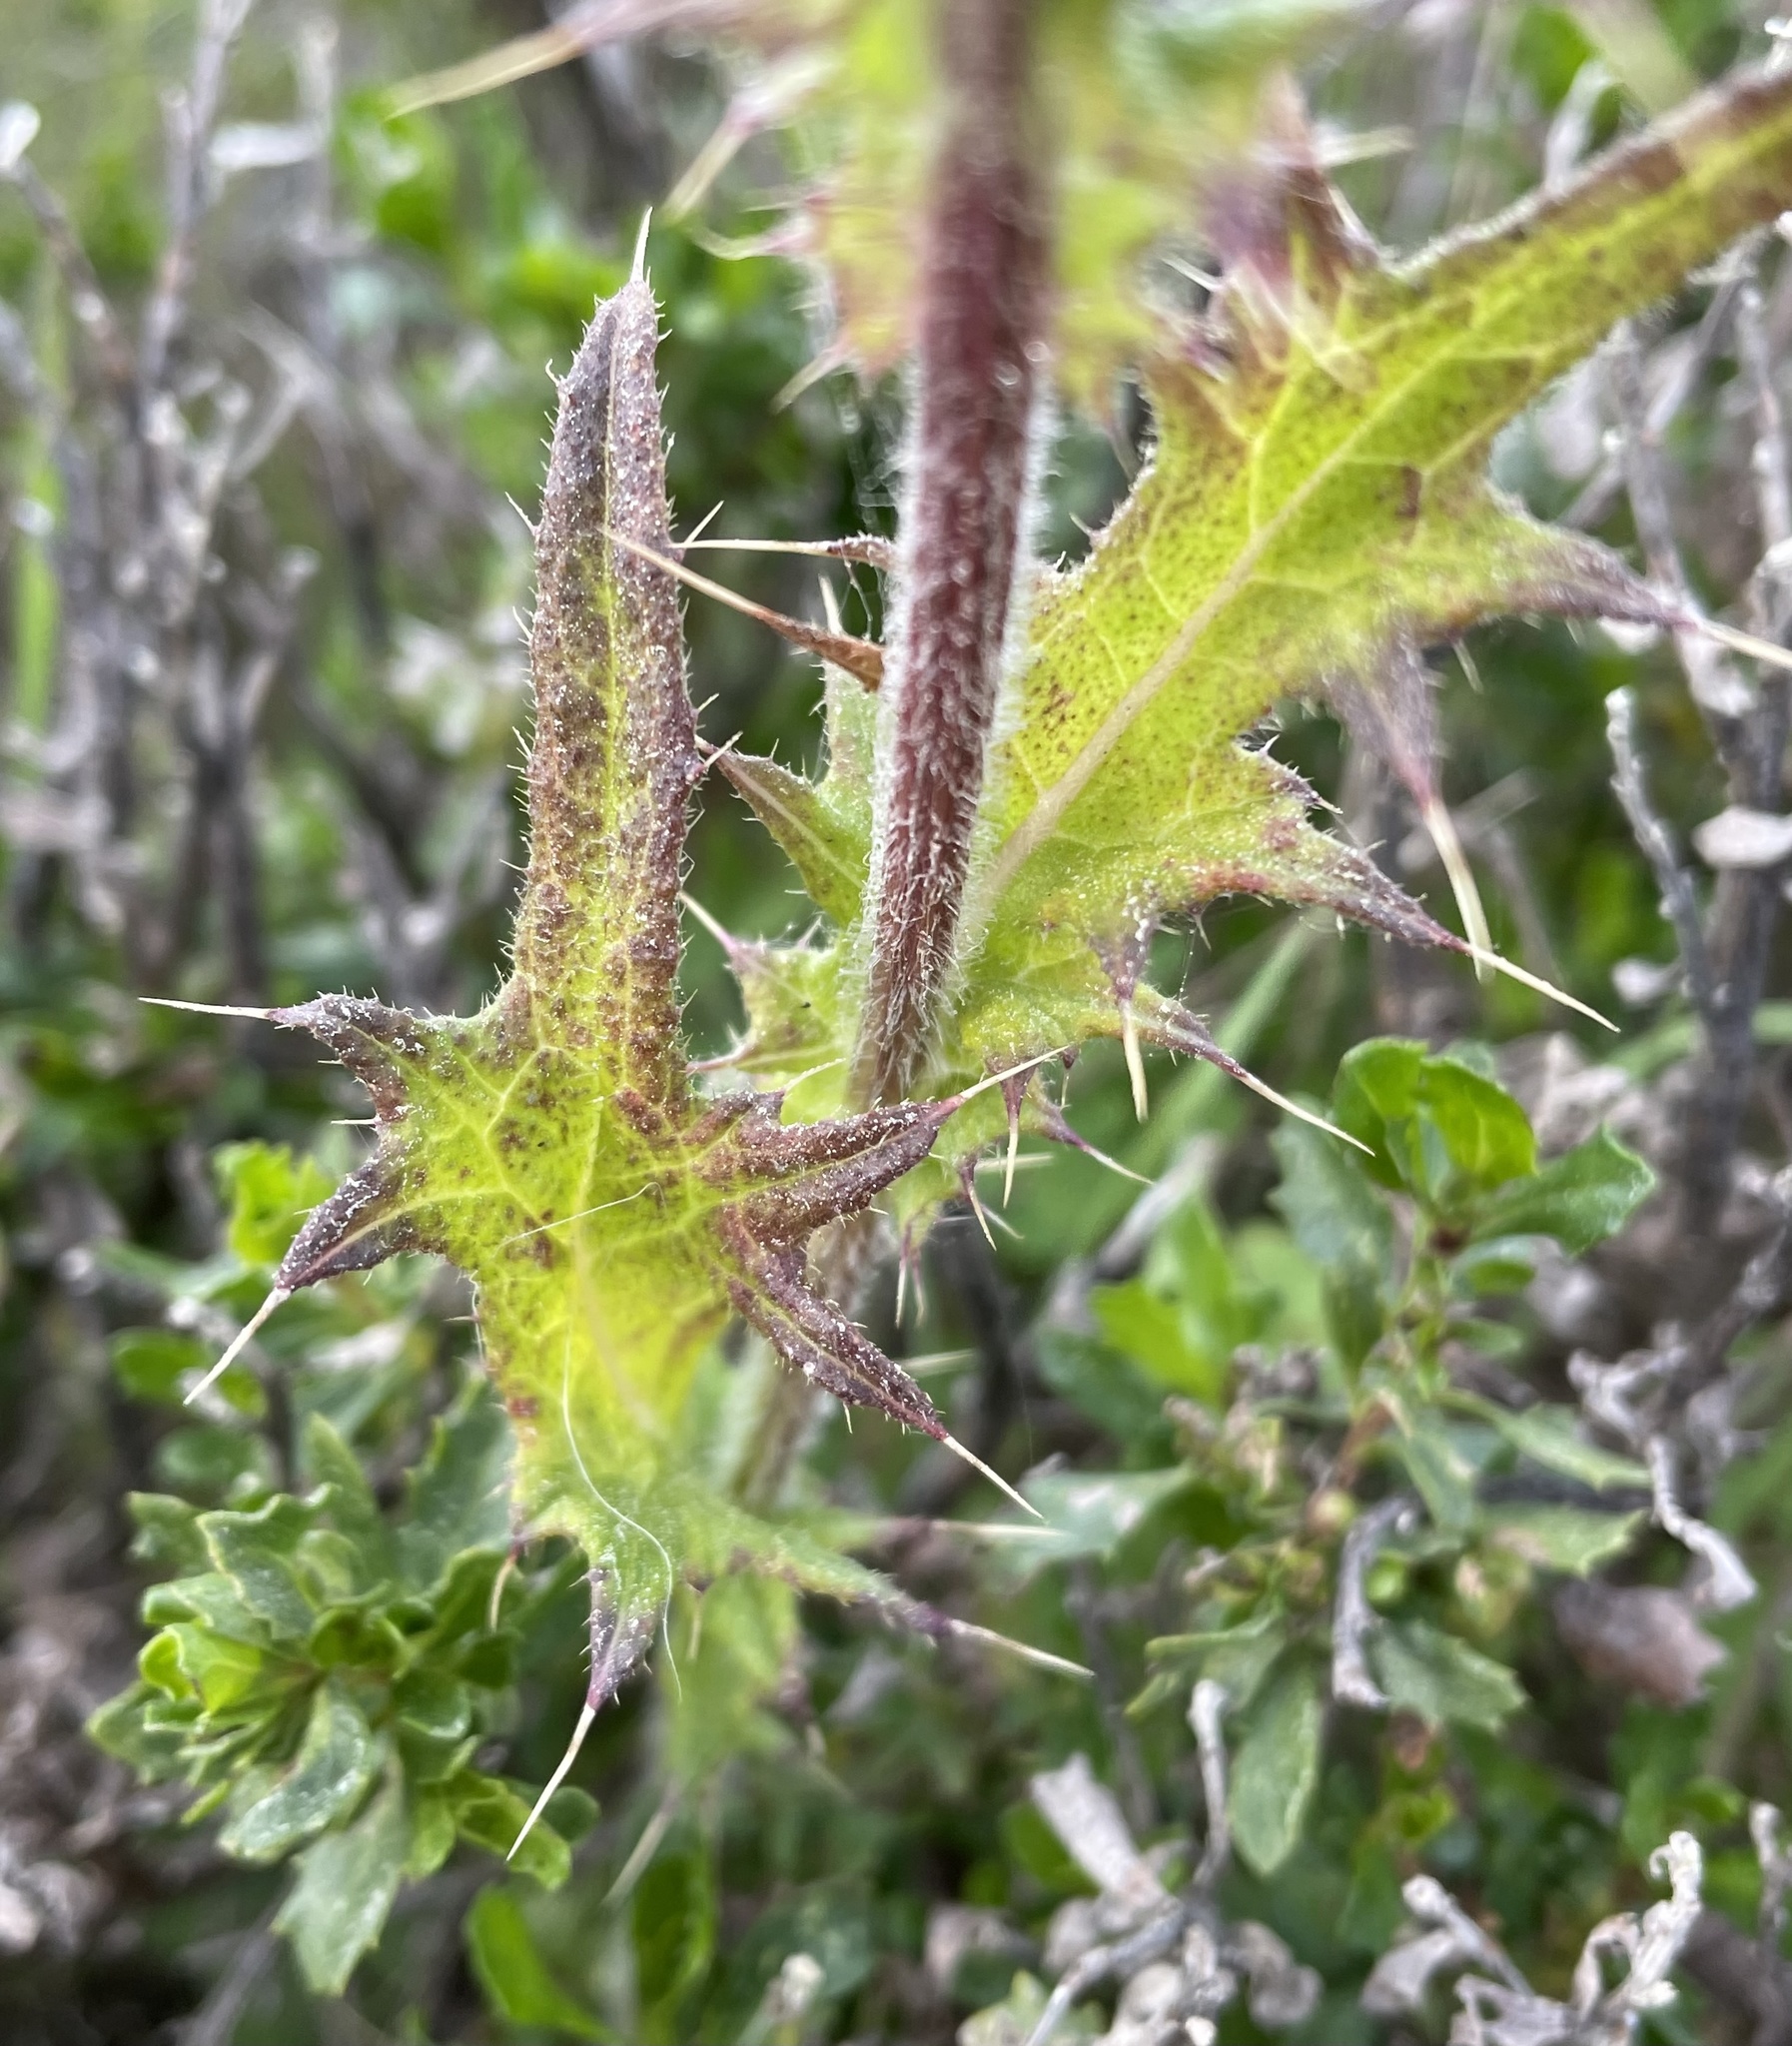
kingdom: Plantae
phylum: Tracheophyta
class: Magnoliopsida
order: Asterales
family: Asteraceae
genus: Cirsium
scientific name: Cirsium vulgare
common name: Bull thistle
